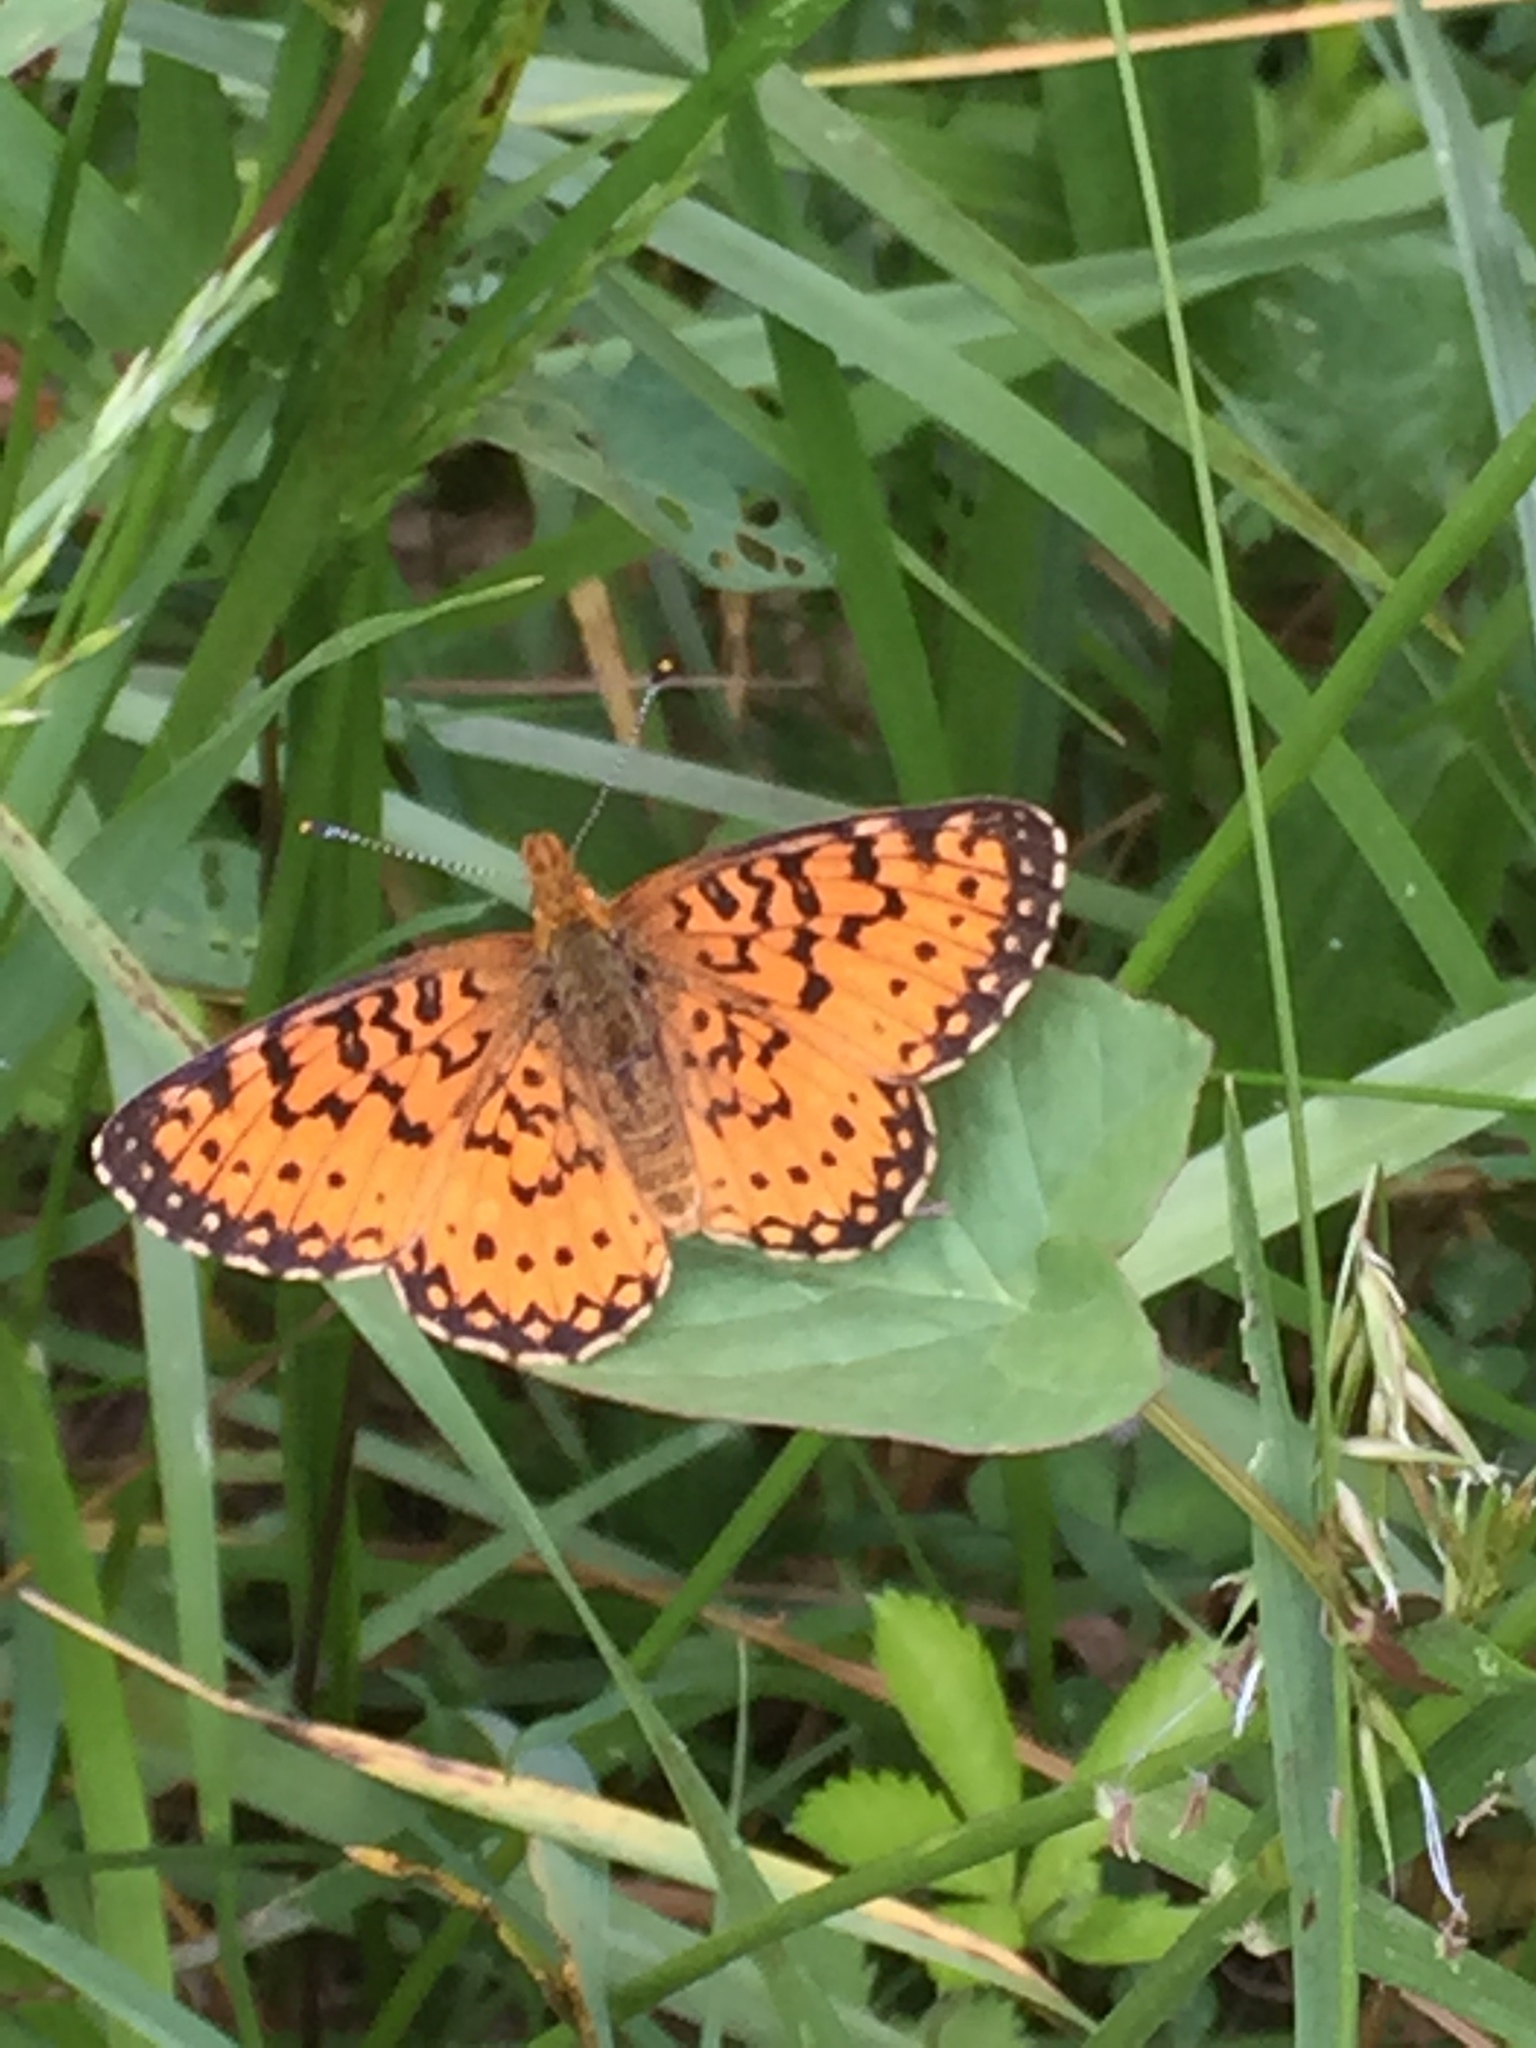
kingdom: Animalia
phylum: Arthropoda
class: Insecta
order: Lepidoptera
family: Nymphalidae
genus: Boloria
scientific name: Boloria
